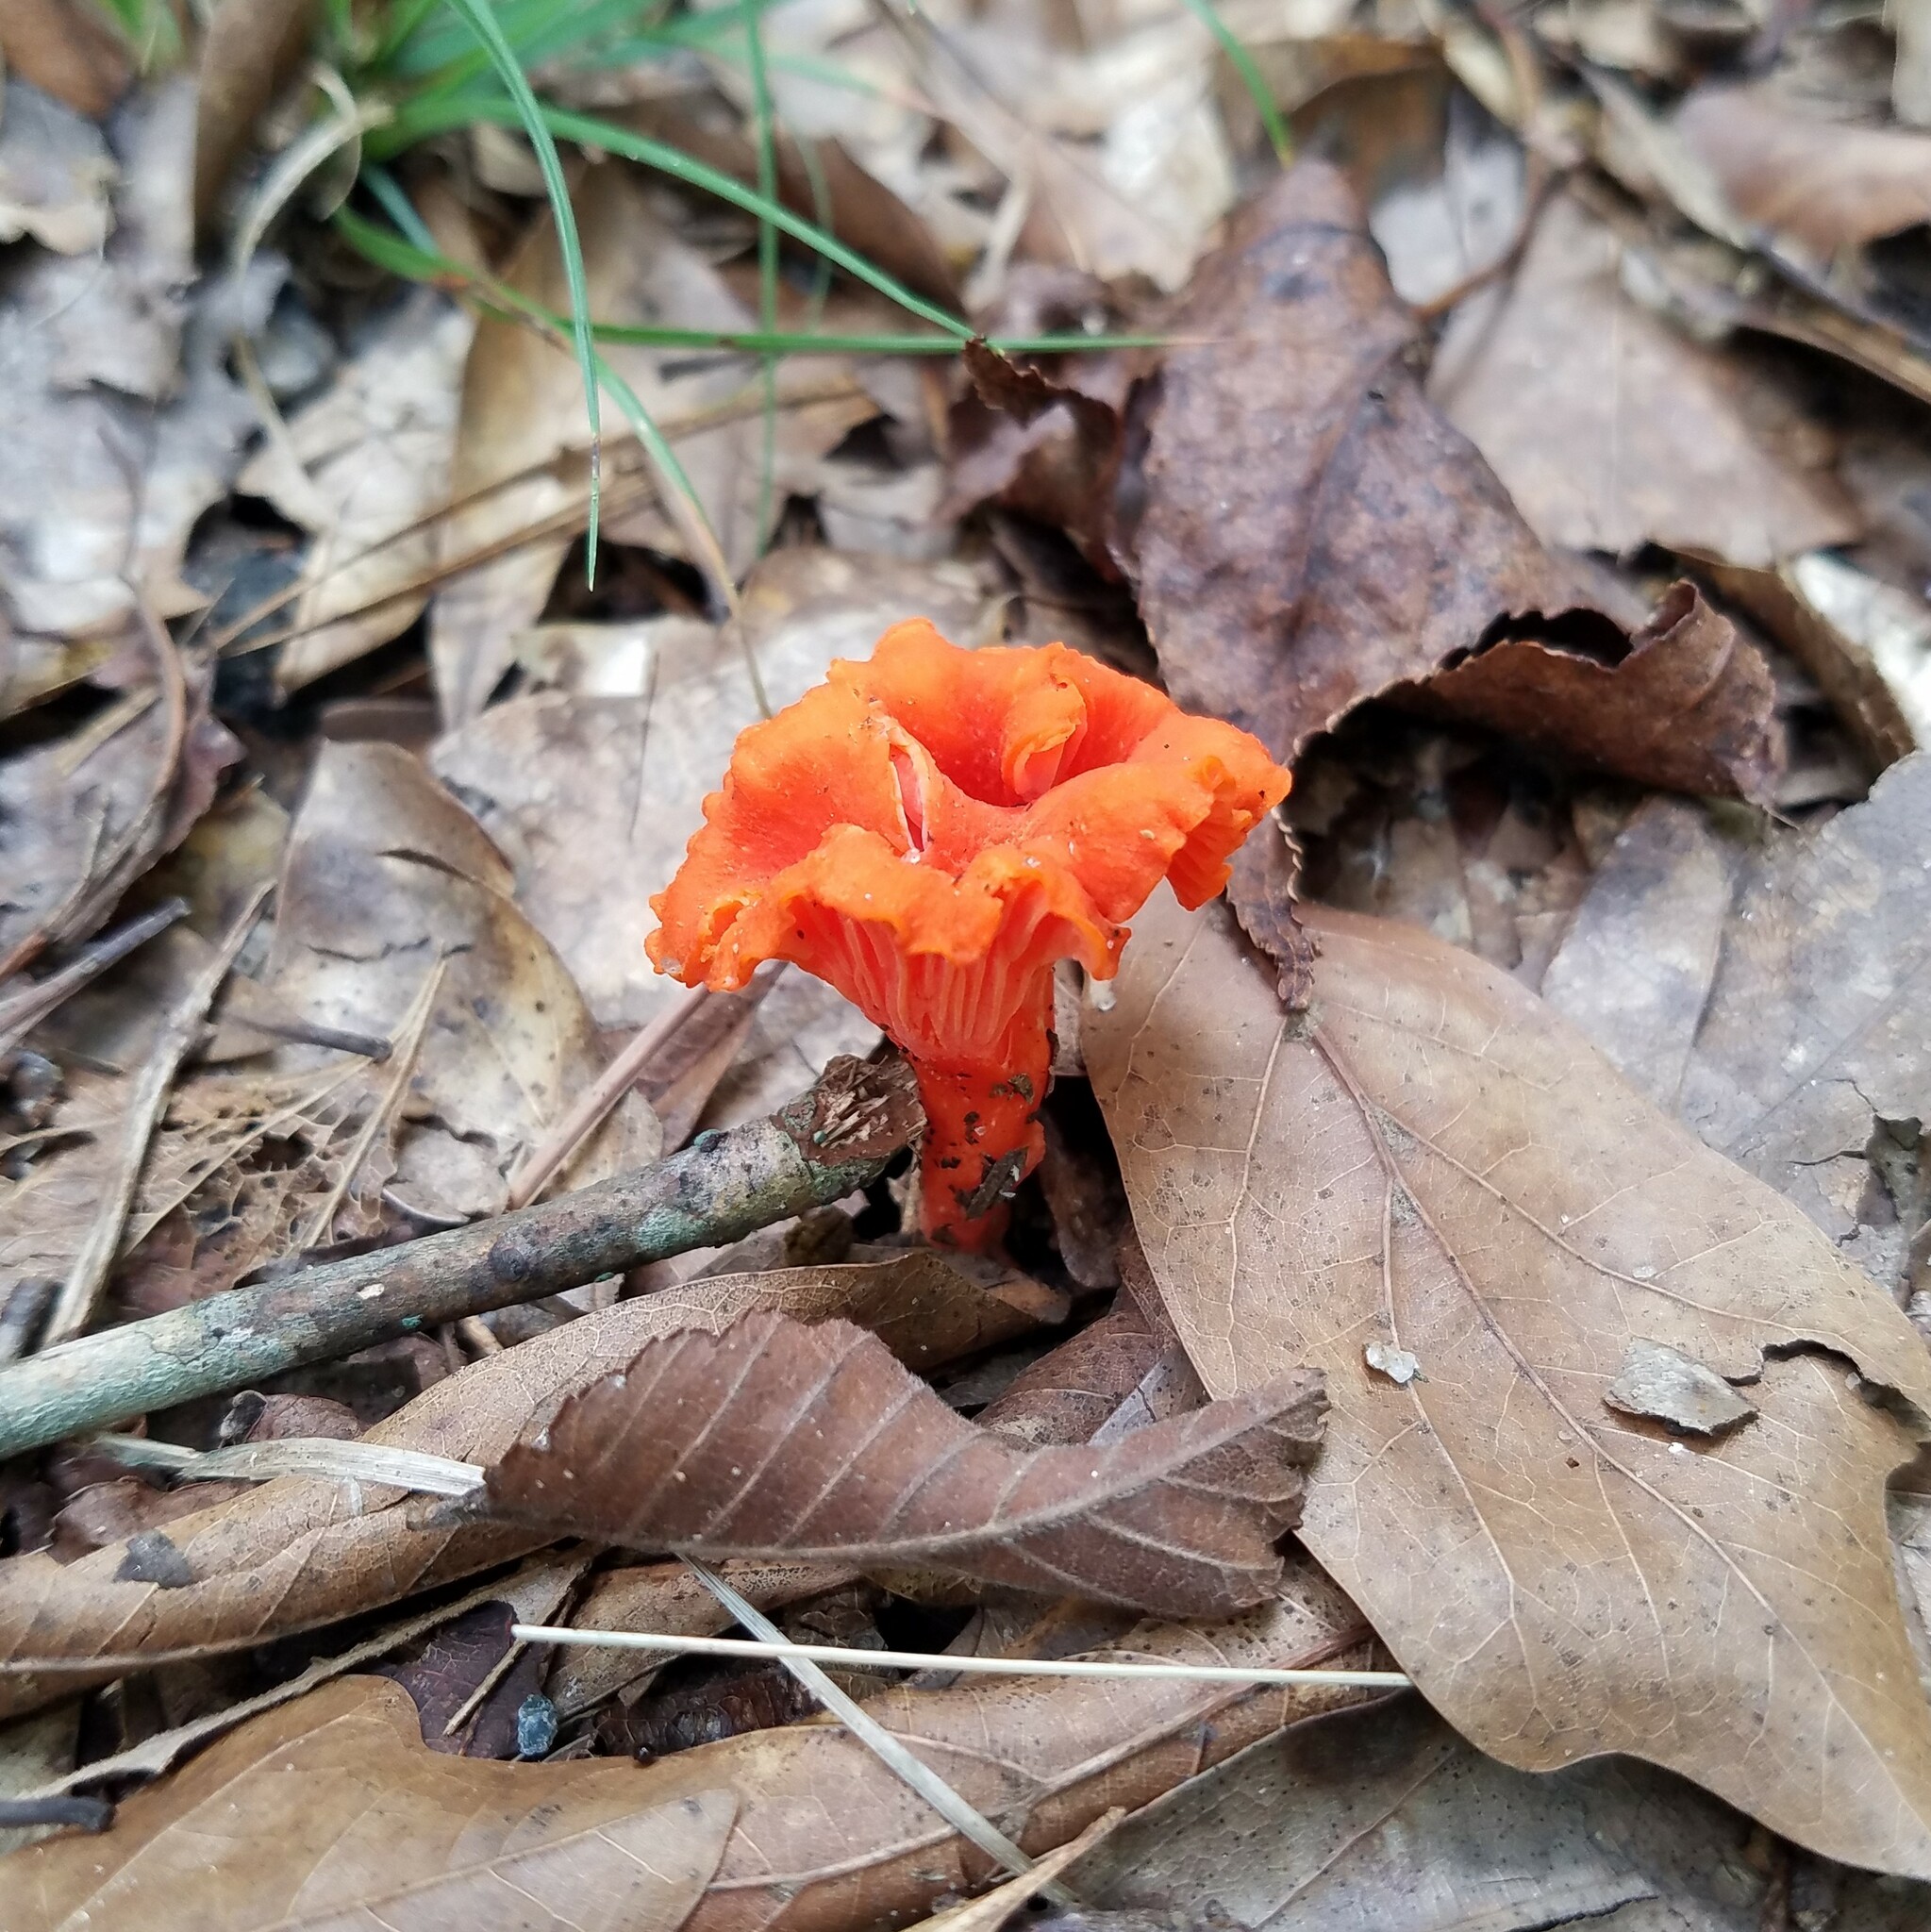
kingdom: Fungi
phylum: Basidiomycota
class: Agaricomycetes
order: Cantharellales
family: Hydnaceae
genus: Cantharellus
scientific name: Cantharellus cinnabarinus
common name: Cinnabar chanterelle
